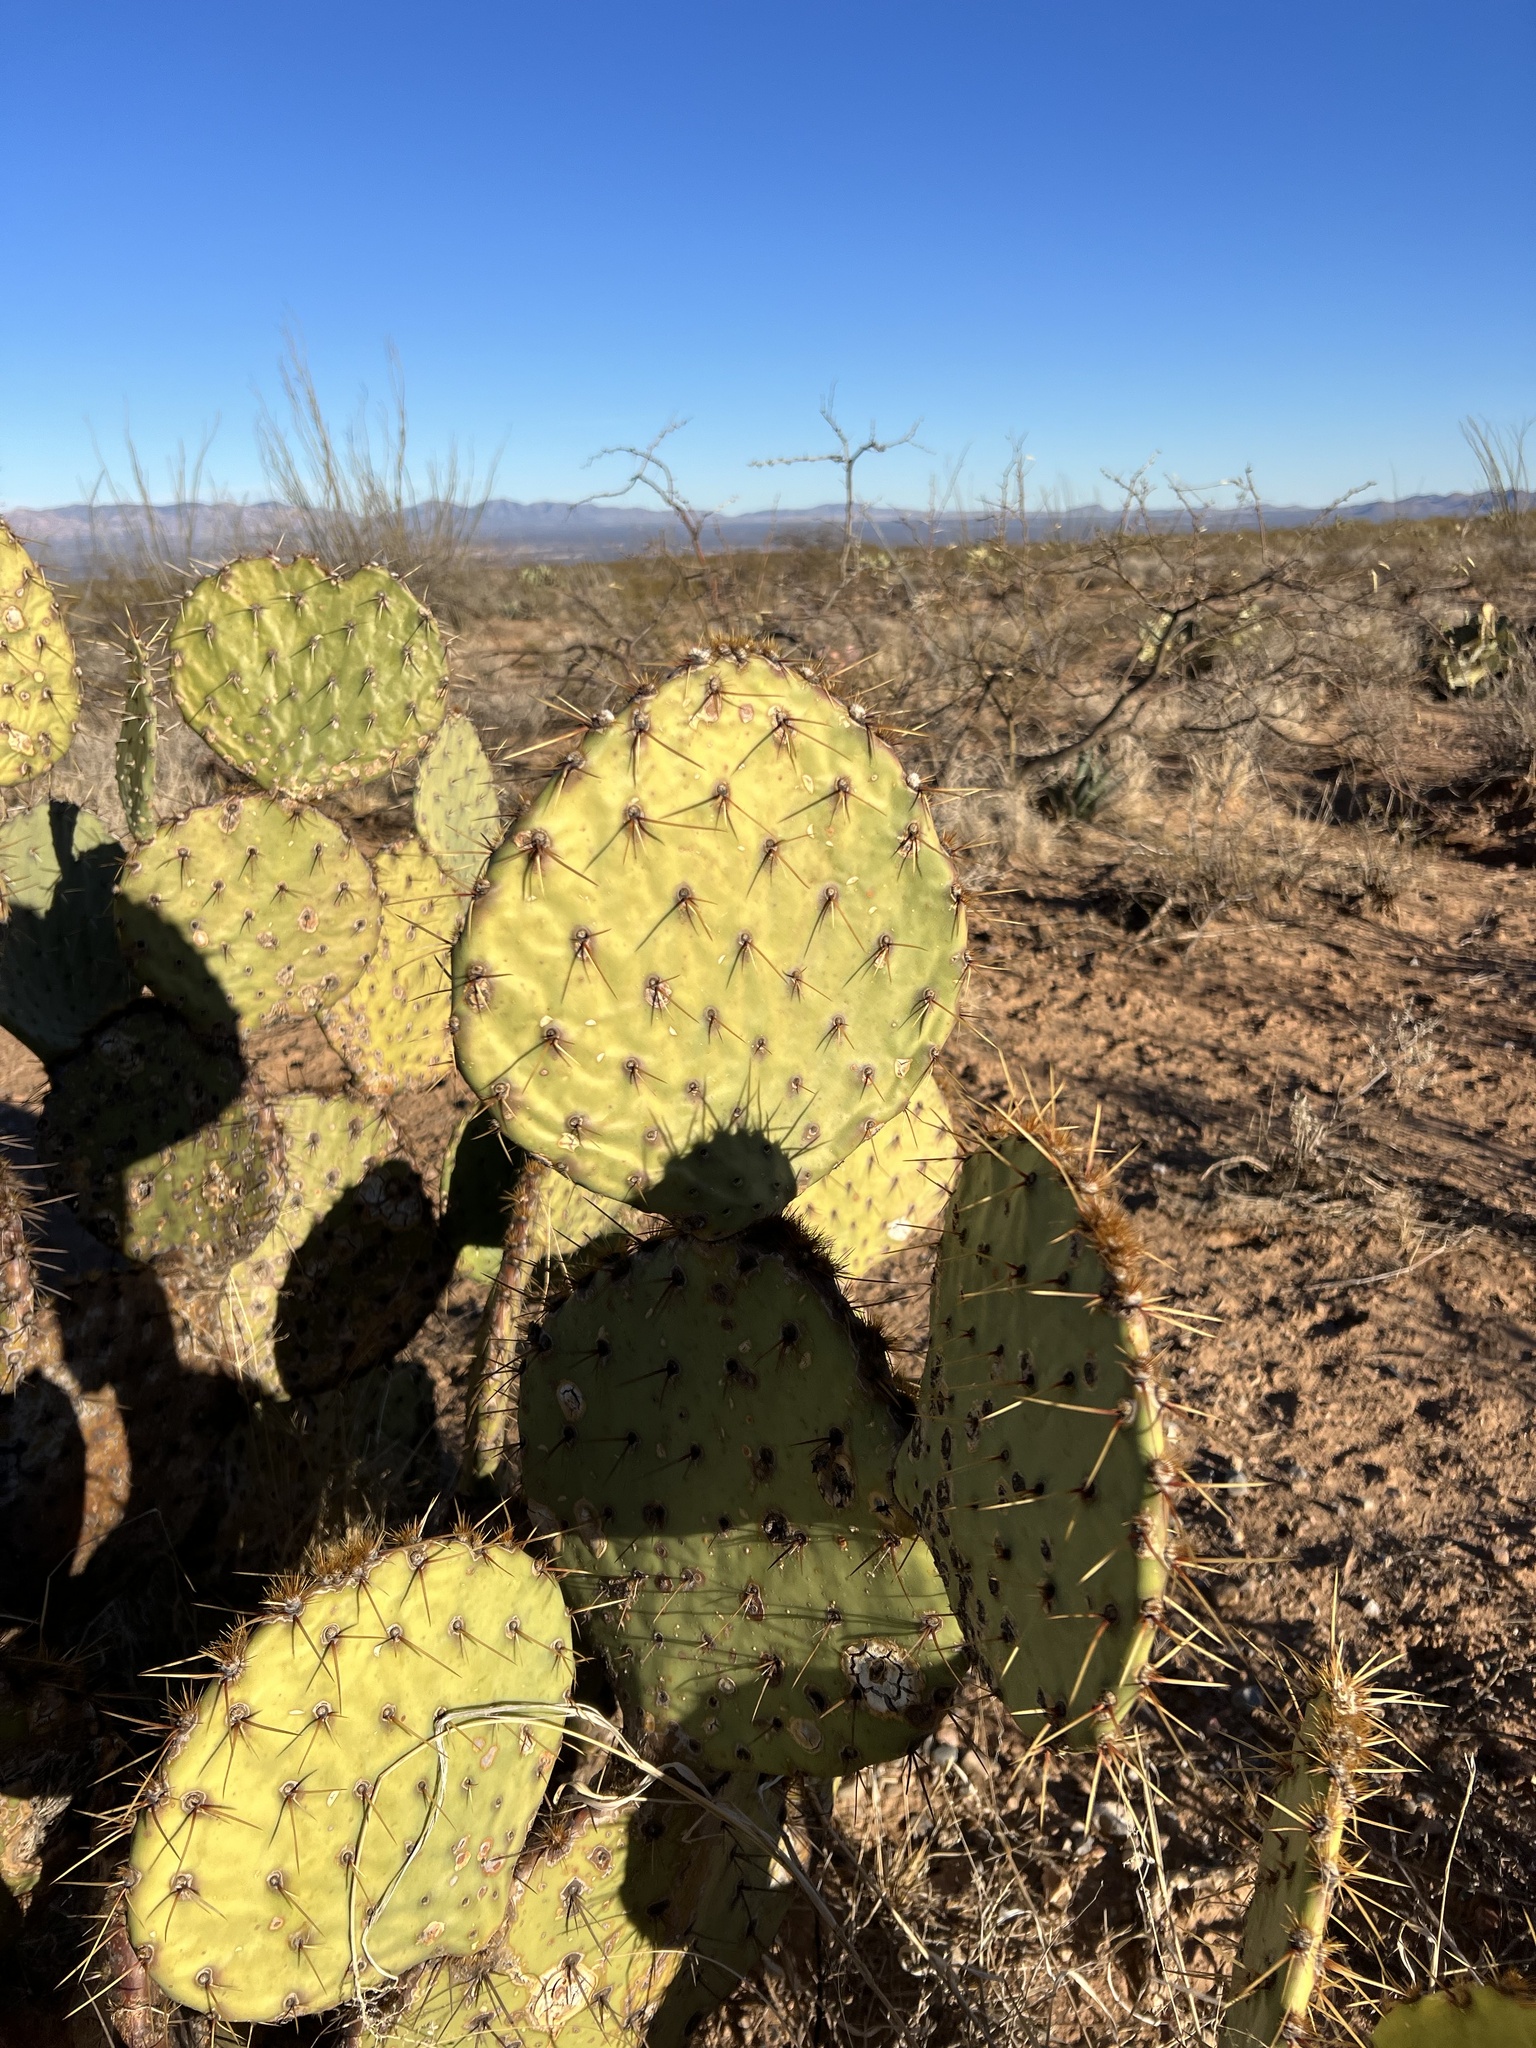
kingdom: Plantae
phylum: Tracheophyta
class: Magnoliopsida
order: Caryophyllales
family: Cactaceae
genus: Opuntia
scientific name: Opuntia engelmannii
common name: Cactus-apple
